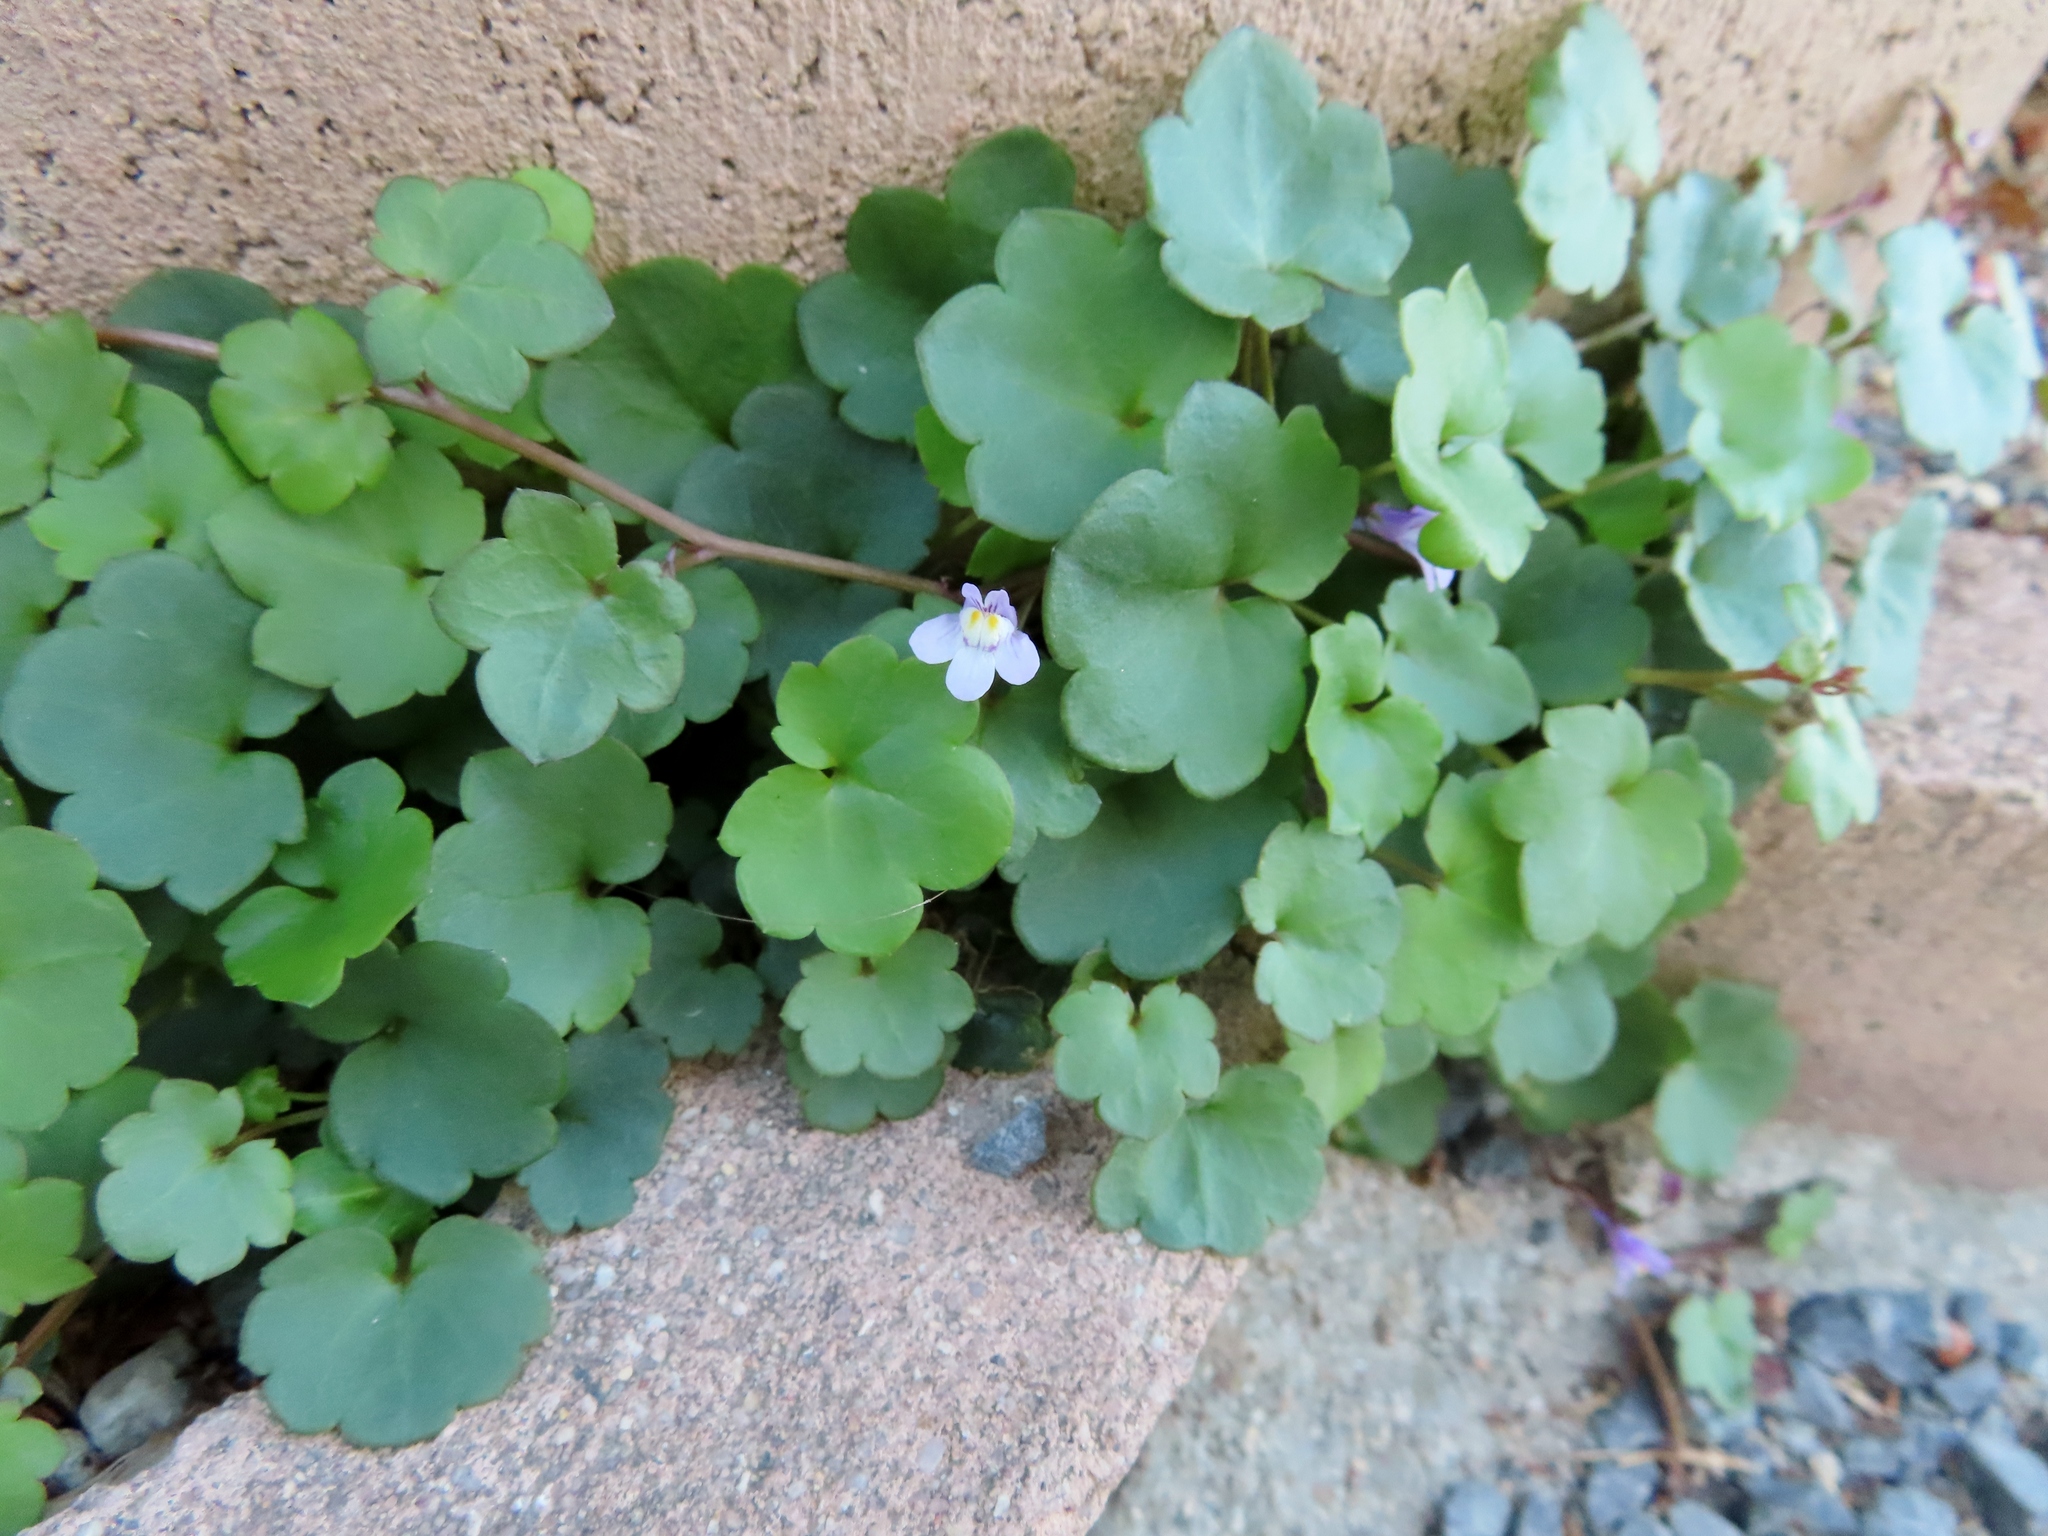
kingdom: Plantae
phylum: Tracheophyta
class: Magnoliopsida
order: Lamiales
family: Plantaginaceae
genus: Cymbalaria
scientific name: Cymbalaria muralis
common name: Ivy-leaved toadflax
